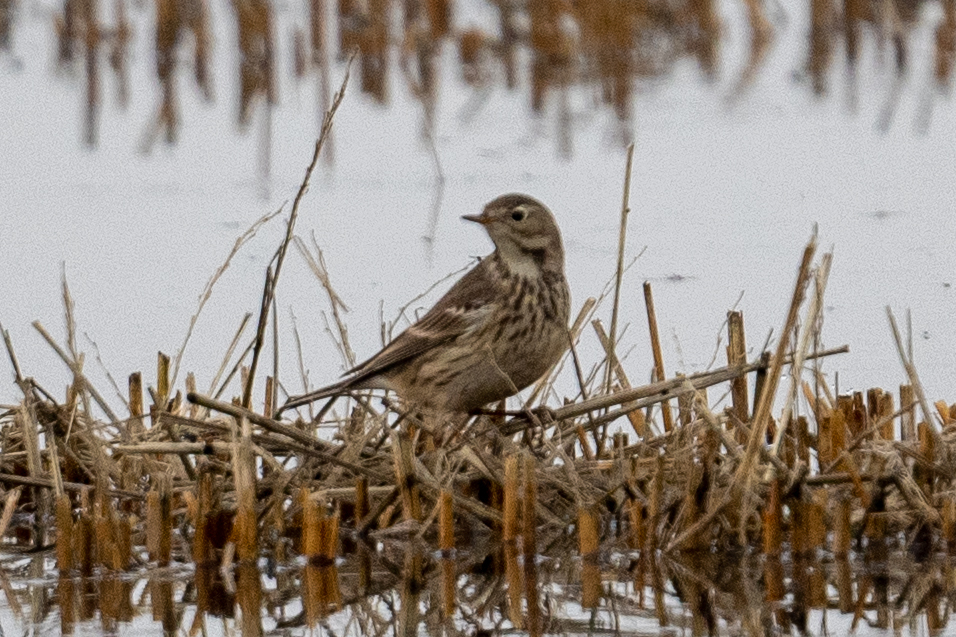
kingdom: Animalia
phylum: Chordata
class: Aves
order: Passeriformes
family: Motacillidae
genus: Anthus
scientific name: Anthus rubescens
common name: Buff-bellied pipit
